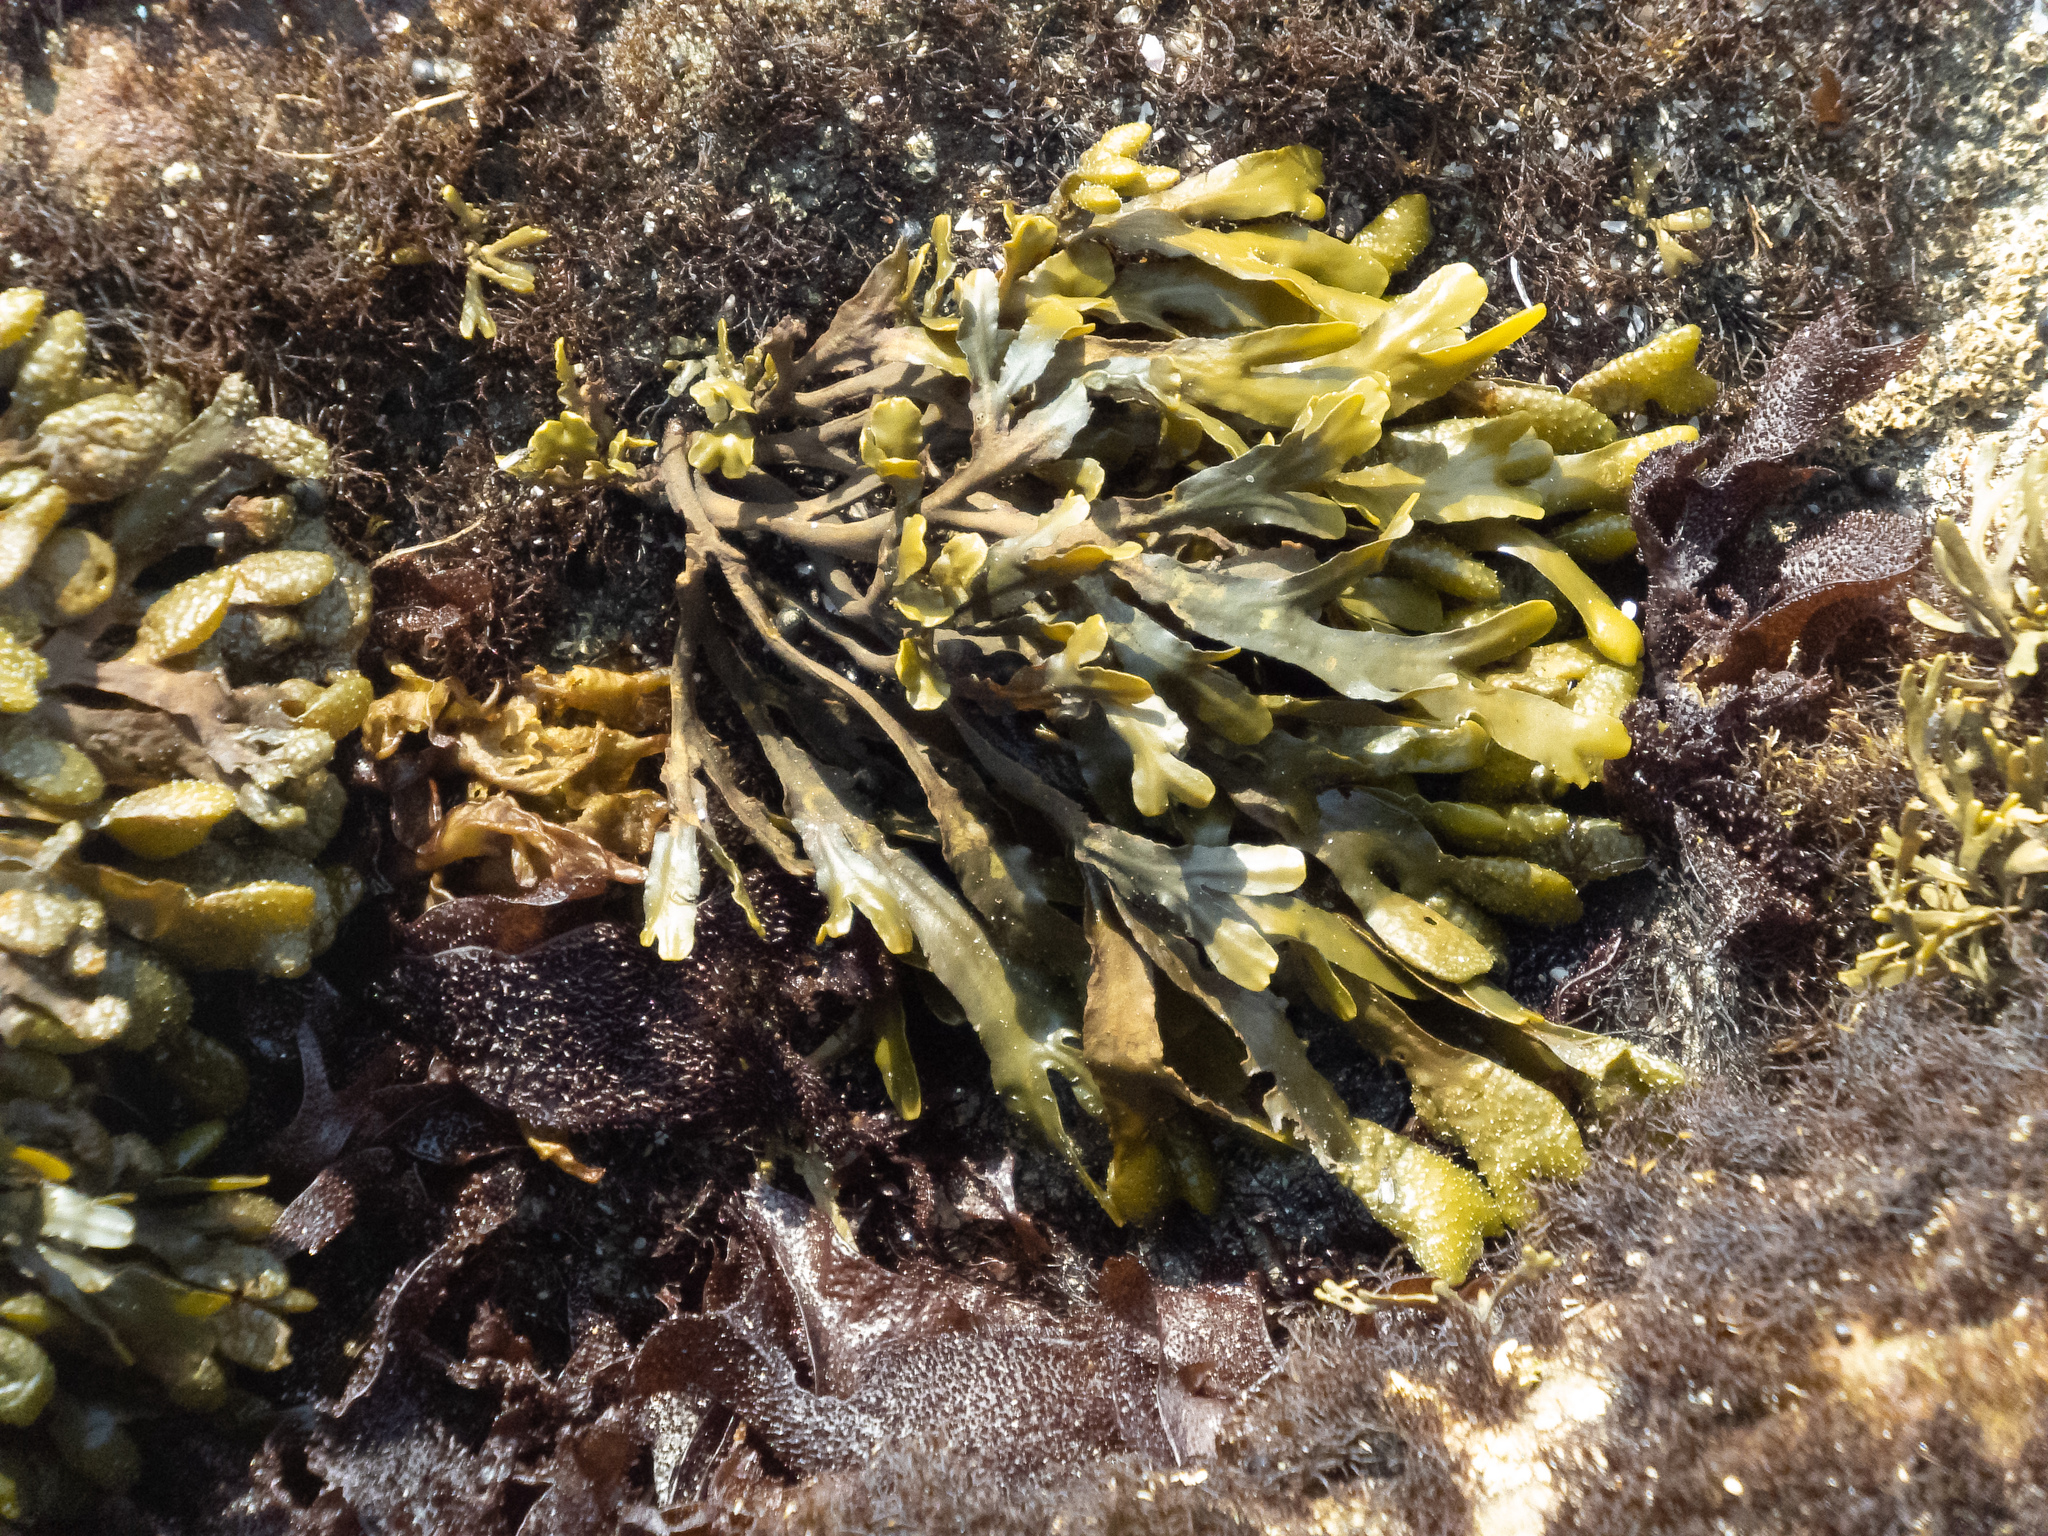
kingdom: Chromista
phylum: Ochrophyta
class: Phaeophyceae
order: Fucales
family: Fucaceae
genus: Fucus
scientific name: Fucus distichus
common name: Rockweed
